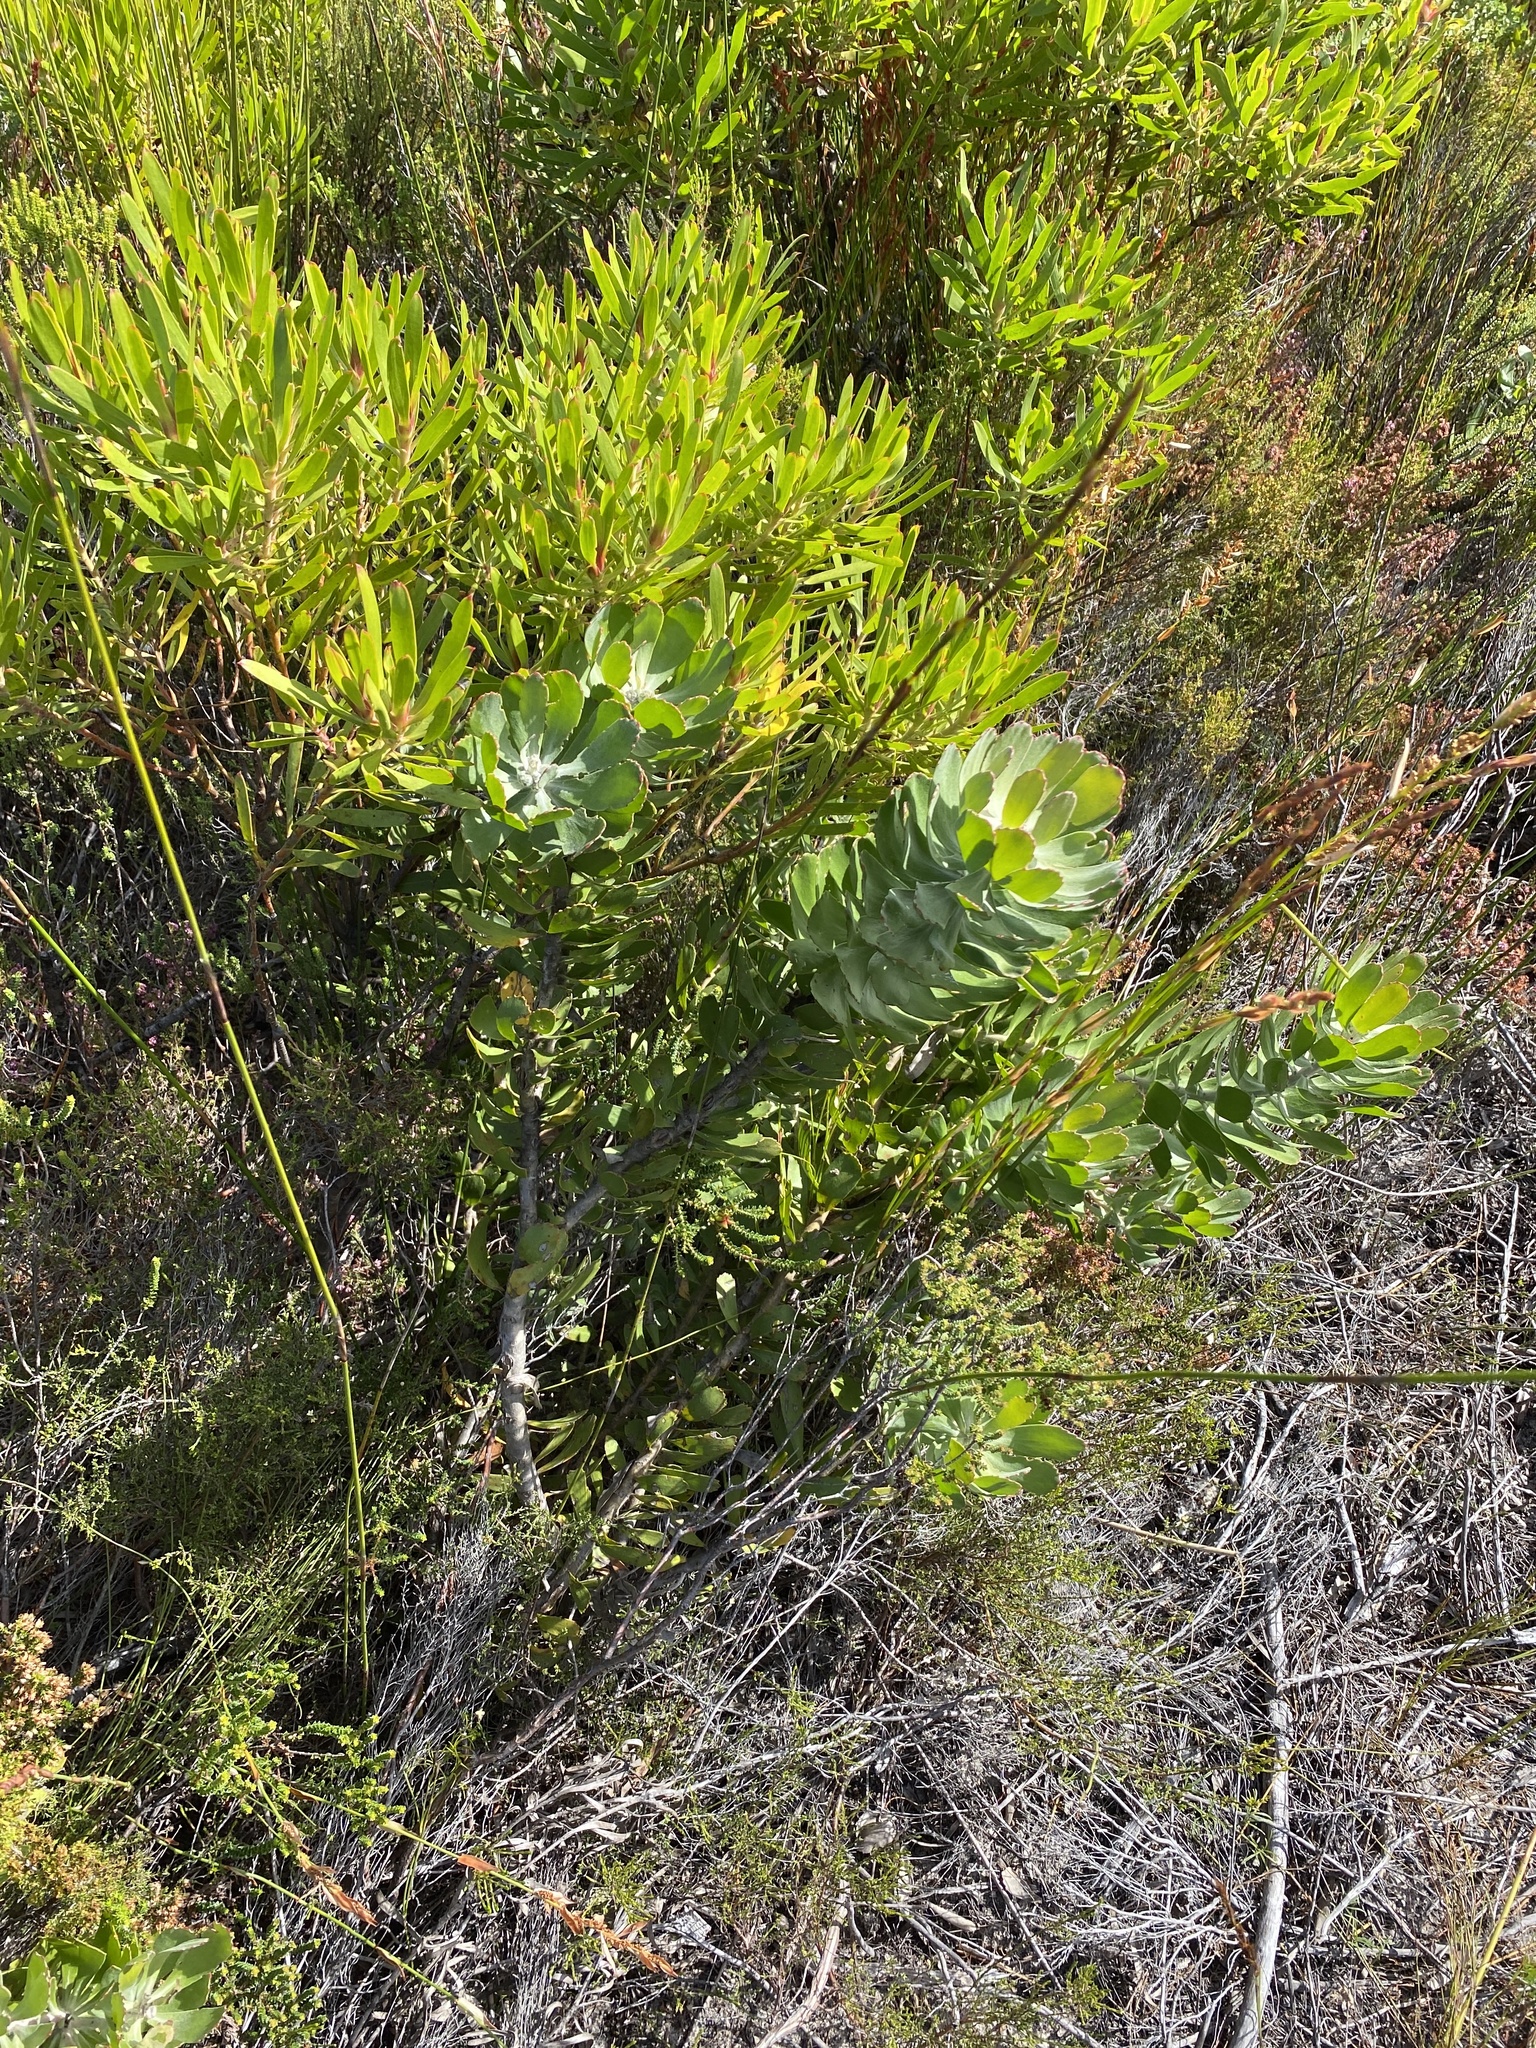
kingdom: Plantae
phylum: Tracheophyta
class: Magnoliopsida
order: Proteales
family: Proteaceae
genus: Leucospermum
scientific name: Leucospermum praecox
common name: Mossel bay pincushion
